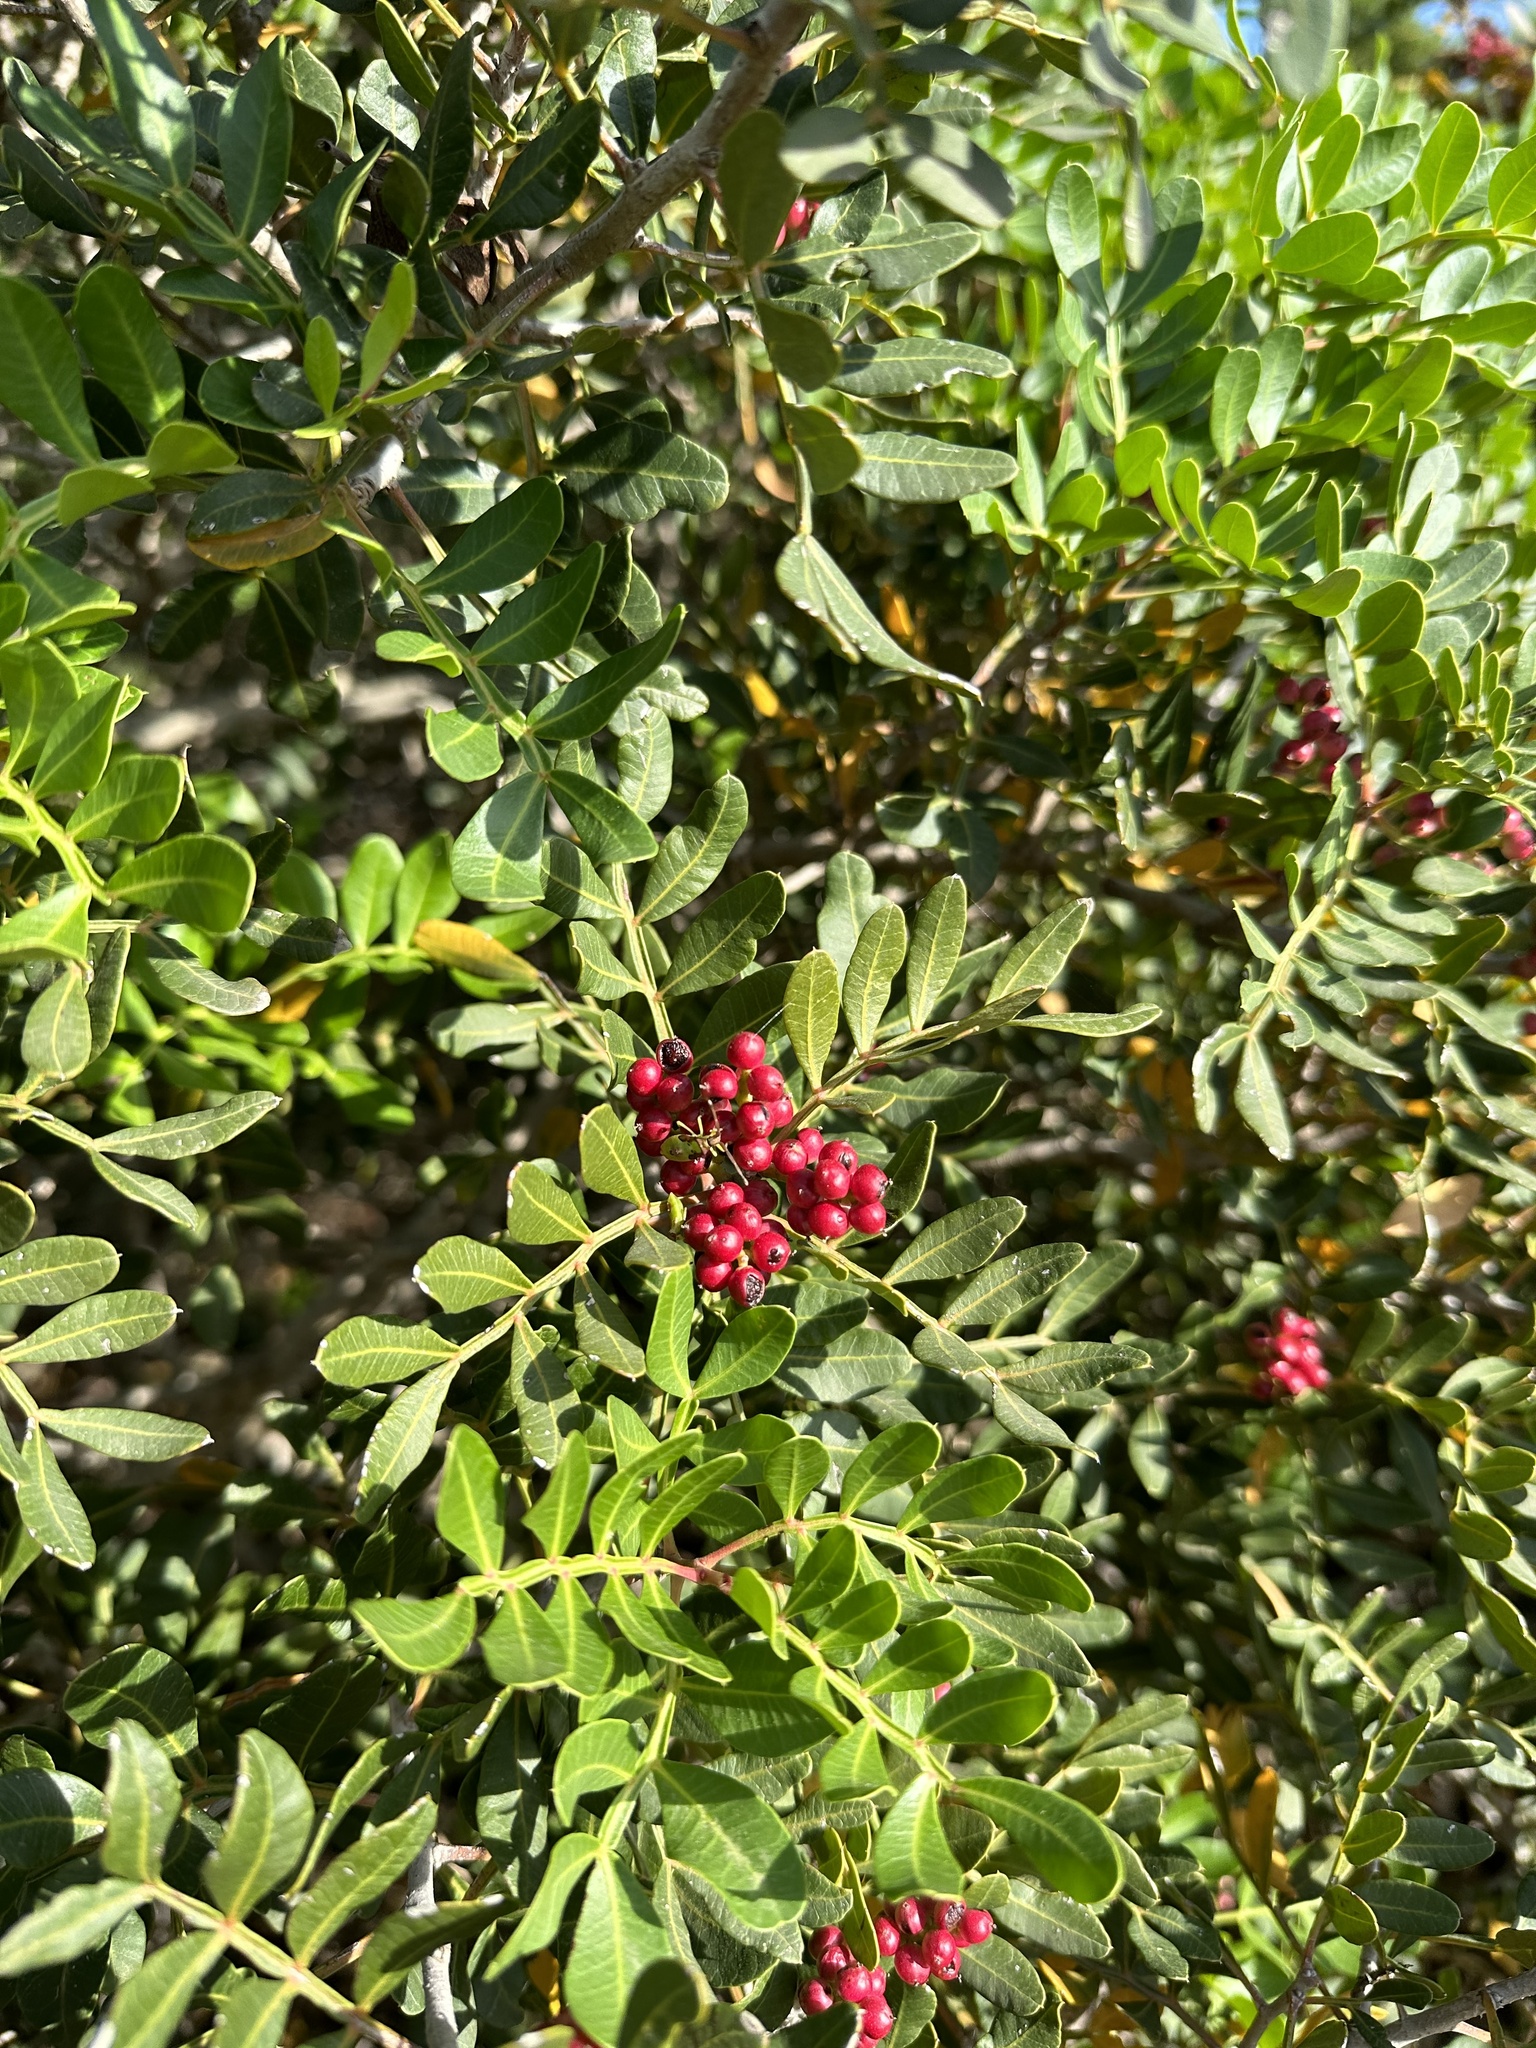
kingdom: Plantae
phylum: Tracheophyta
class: Magnoliopsida
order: Sapindales
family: Anacardiaceae
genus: Pistacia
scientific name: Pistacia lentiscus
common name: Lentisk
